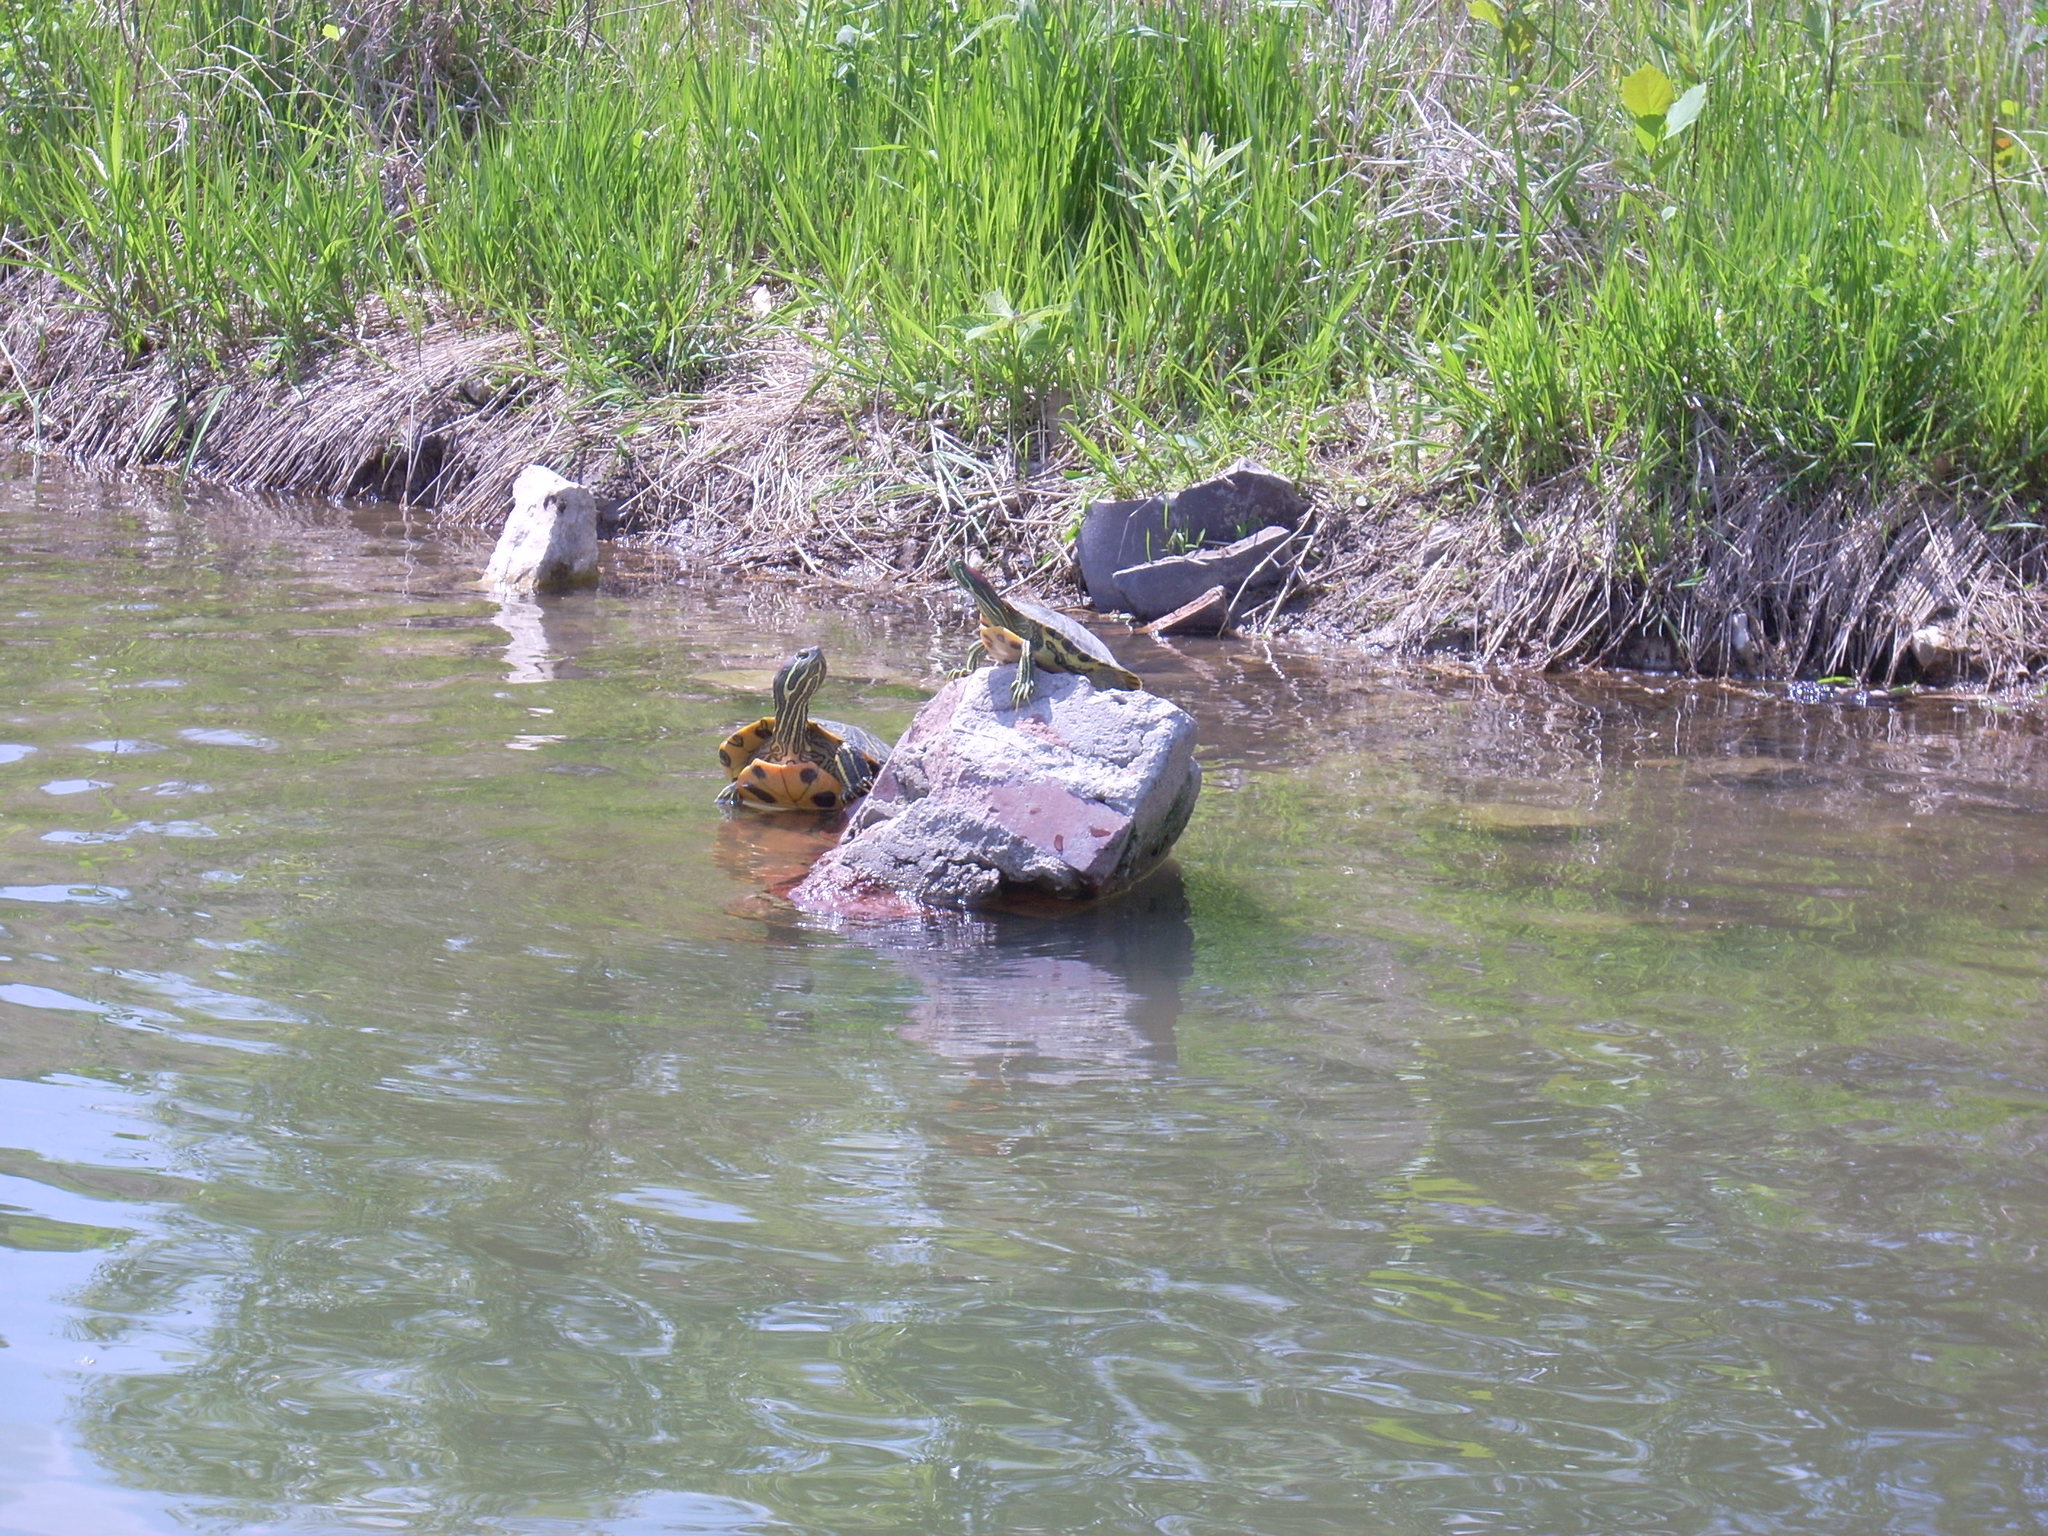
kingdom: Animalia
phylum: Chordata
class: Testudines
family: Emydidae
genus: Trachemys
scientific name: Trachemys scripta
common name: Slider
